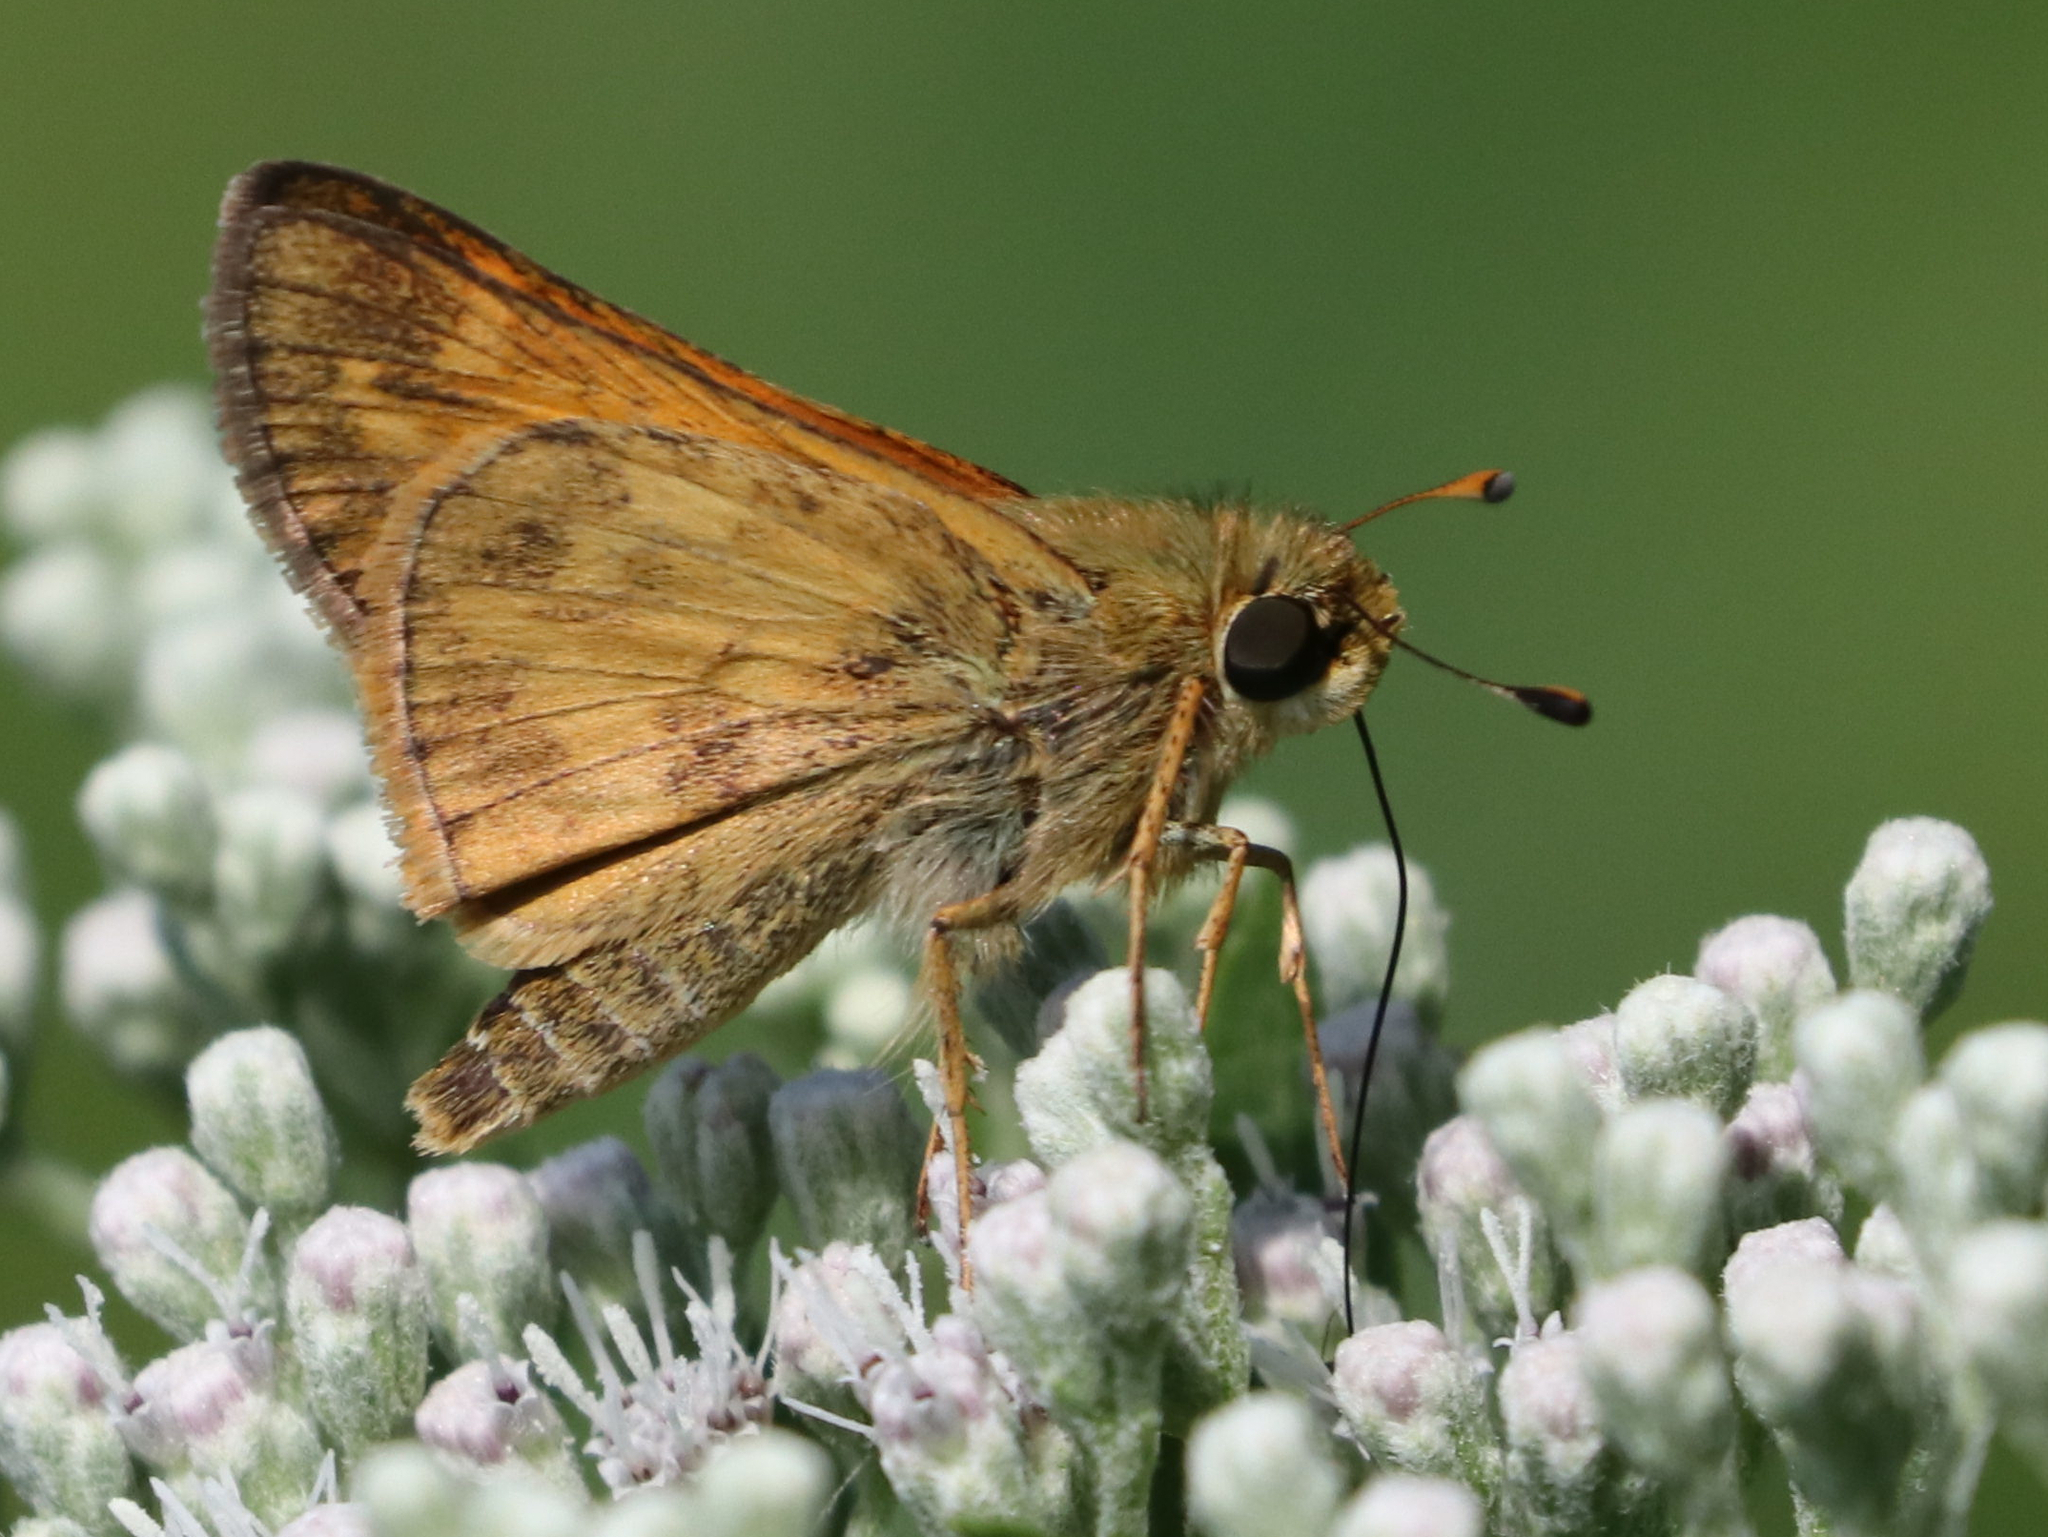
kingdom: Animalia
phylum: Arthropoda
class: Insecta
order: Lepidoptera
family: Hesperiidae
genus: Atalopedes
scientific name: Atalopedes
